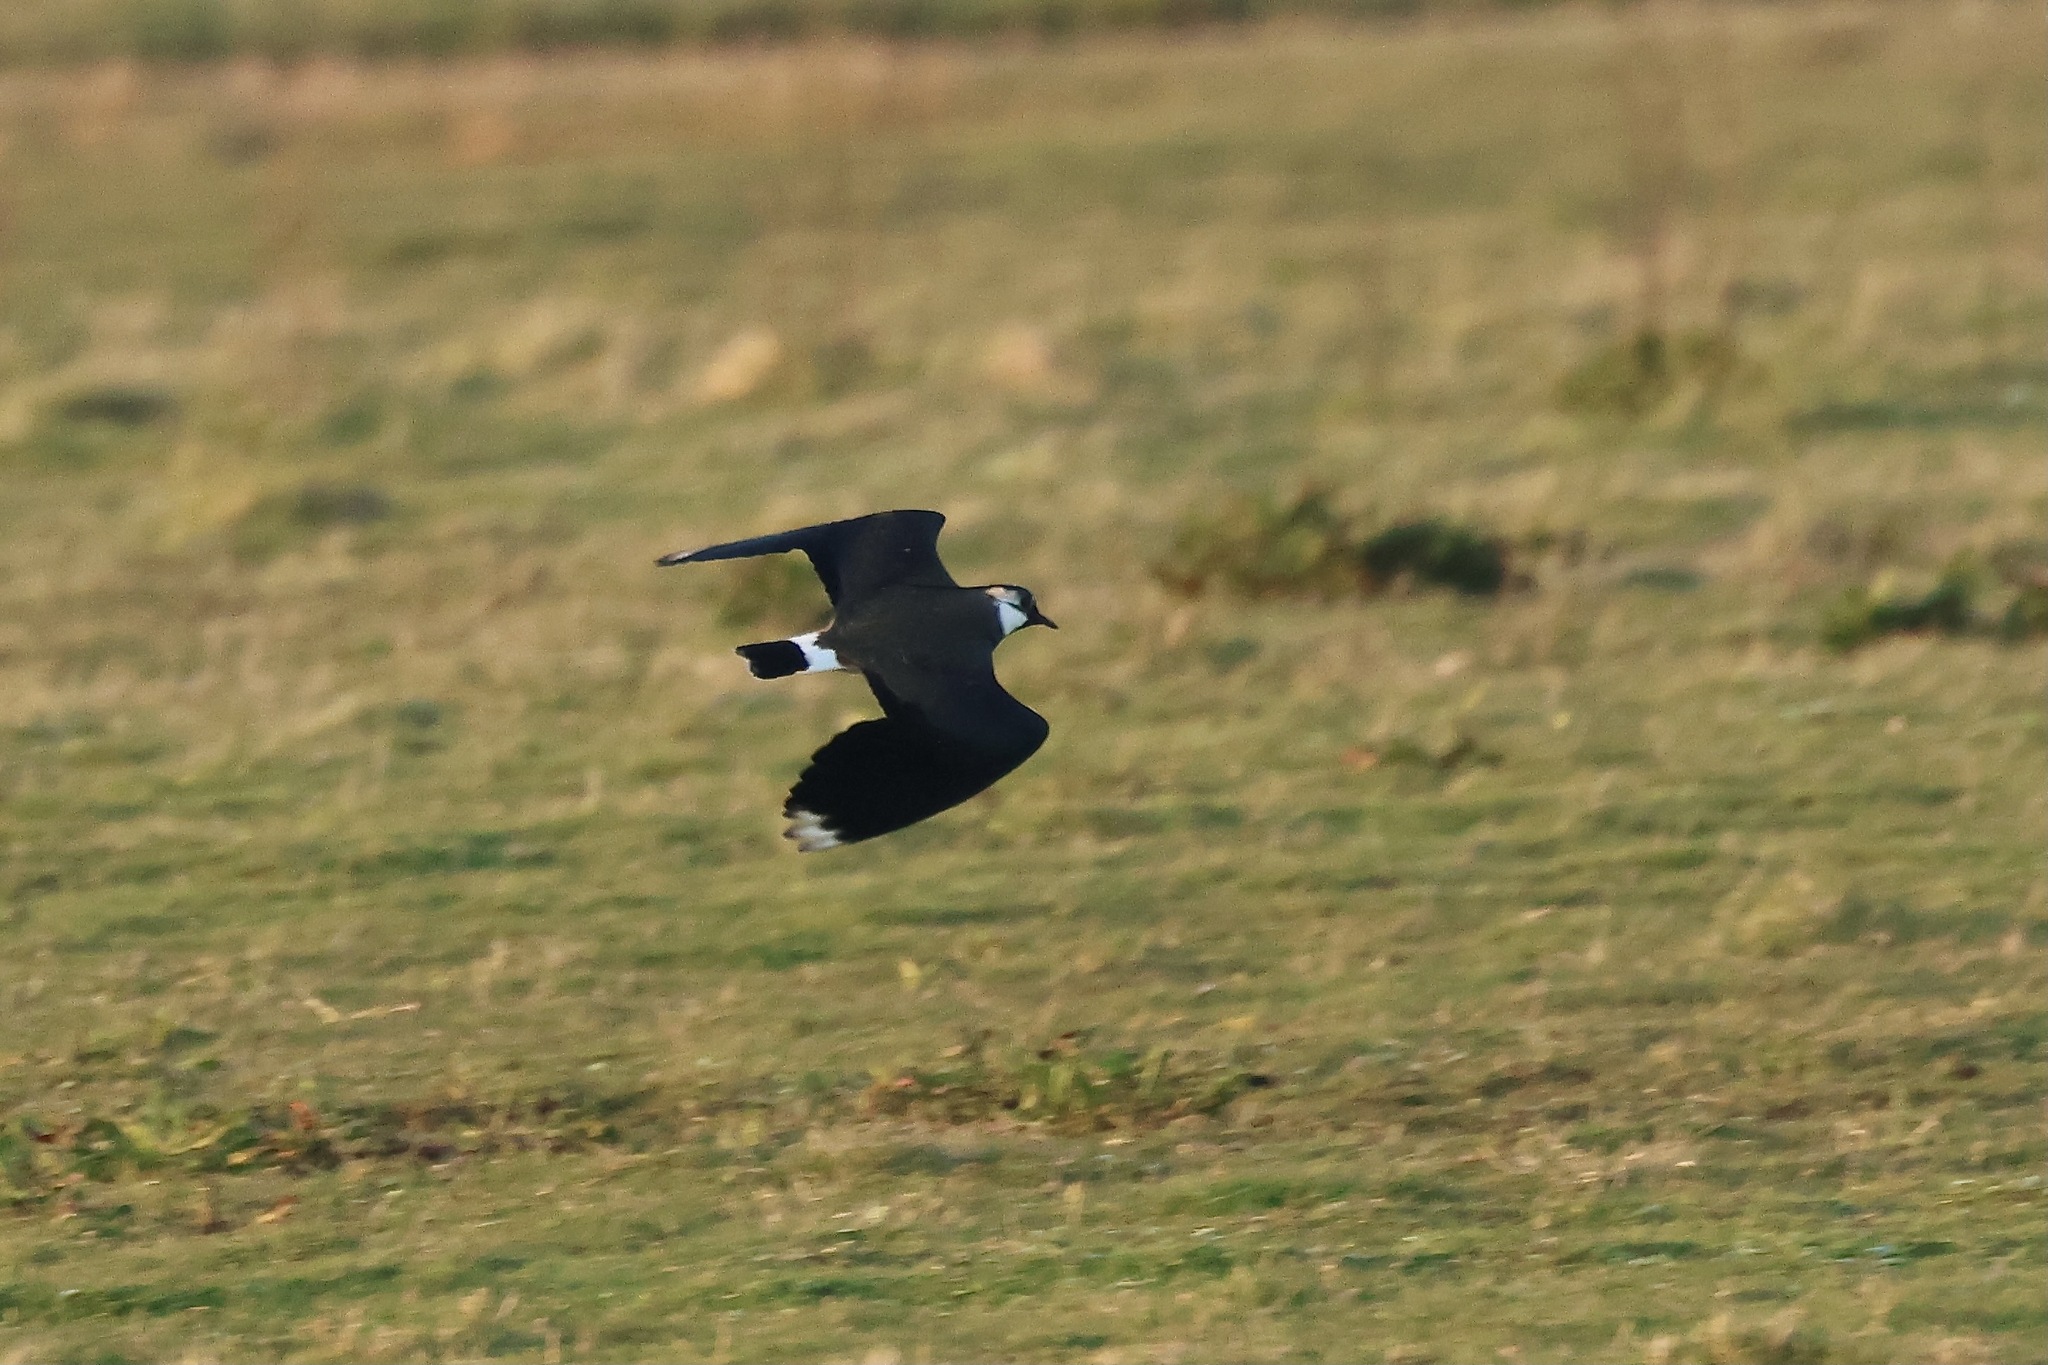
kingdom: Animalia
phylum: Chordata
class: Aves
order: Charadriiformes
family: Charadriidae
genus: Vanellus
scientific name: Vanellus vanellus
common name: Northern lapwing
